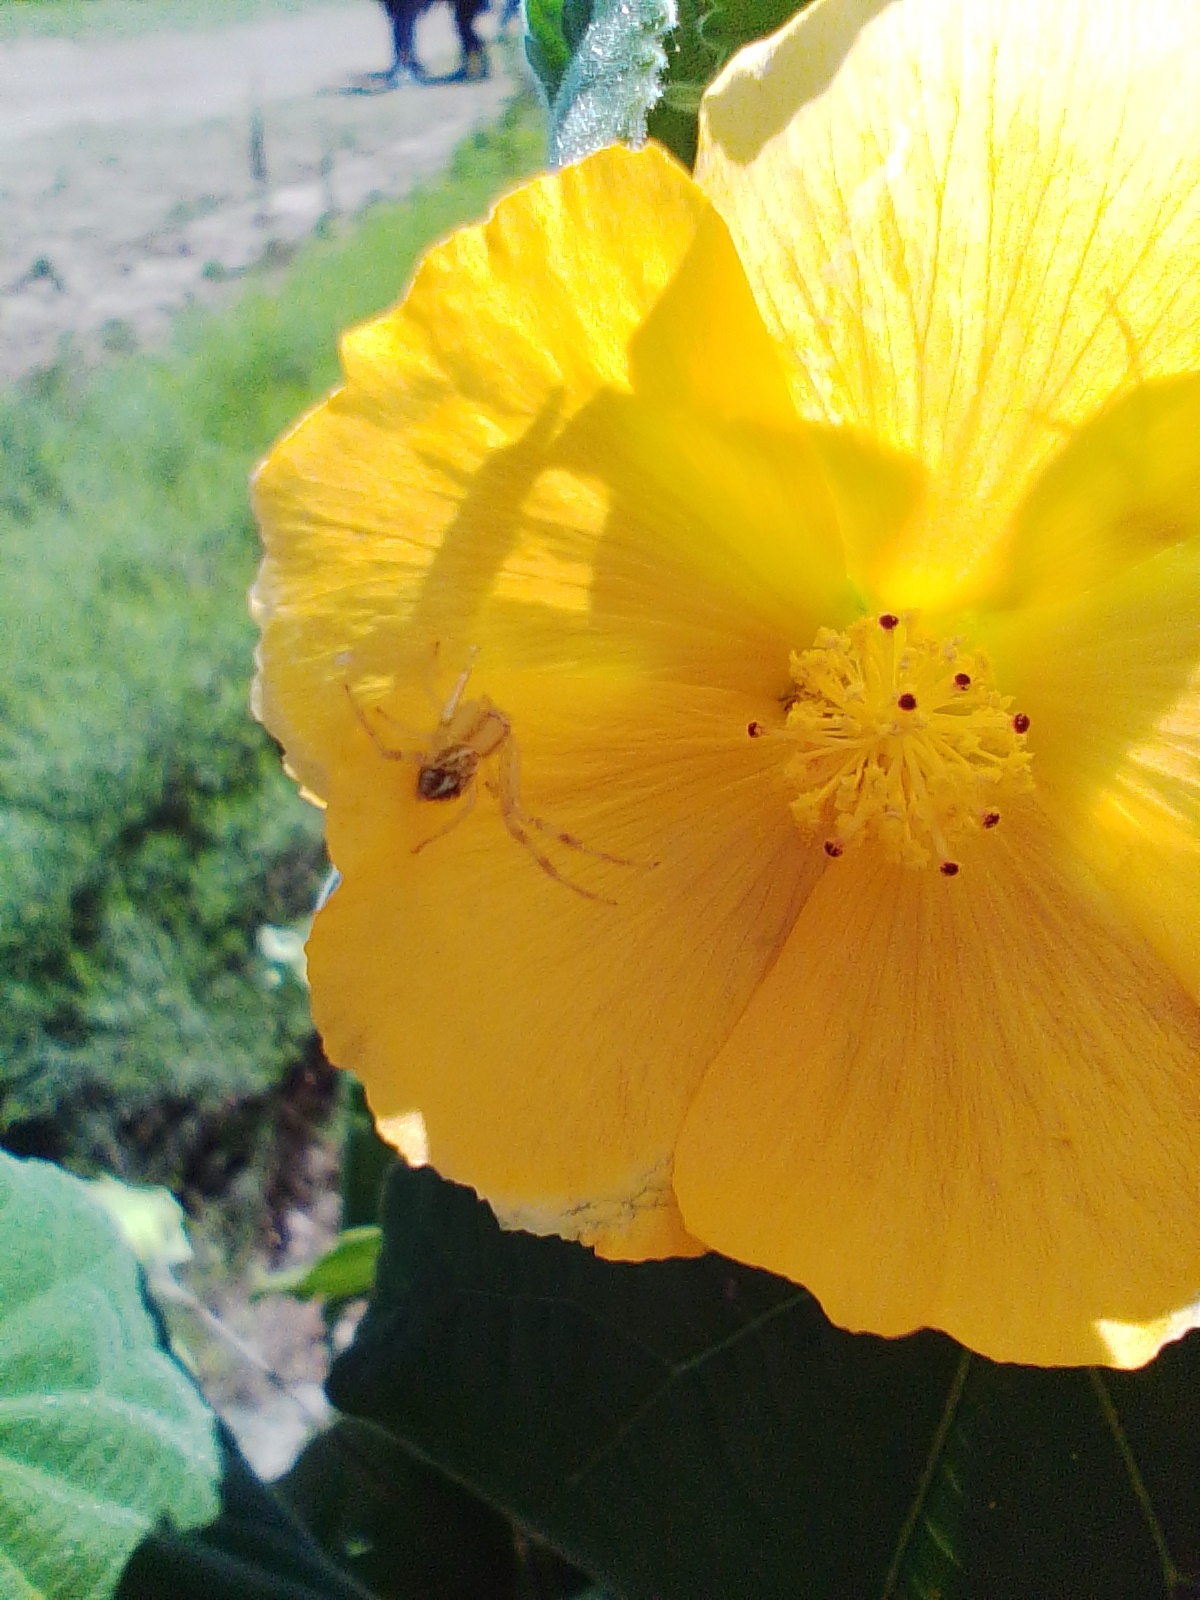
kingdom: Animalia
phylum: Arthropoda
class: Arachnida
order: Araneae
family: Thomisidae
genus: Misumenops
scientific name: Misumenops
